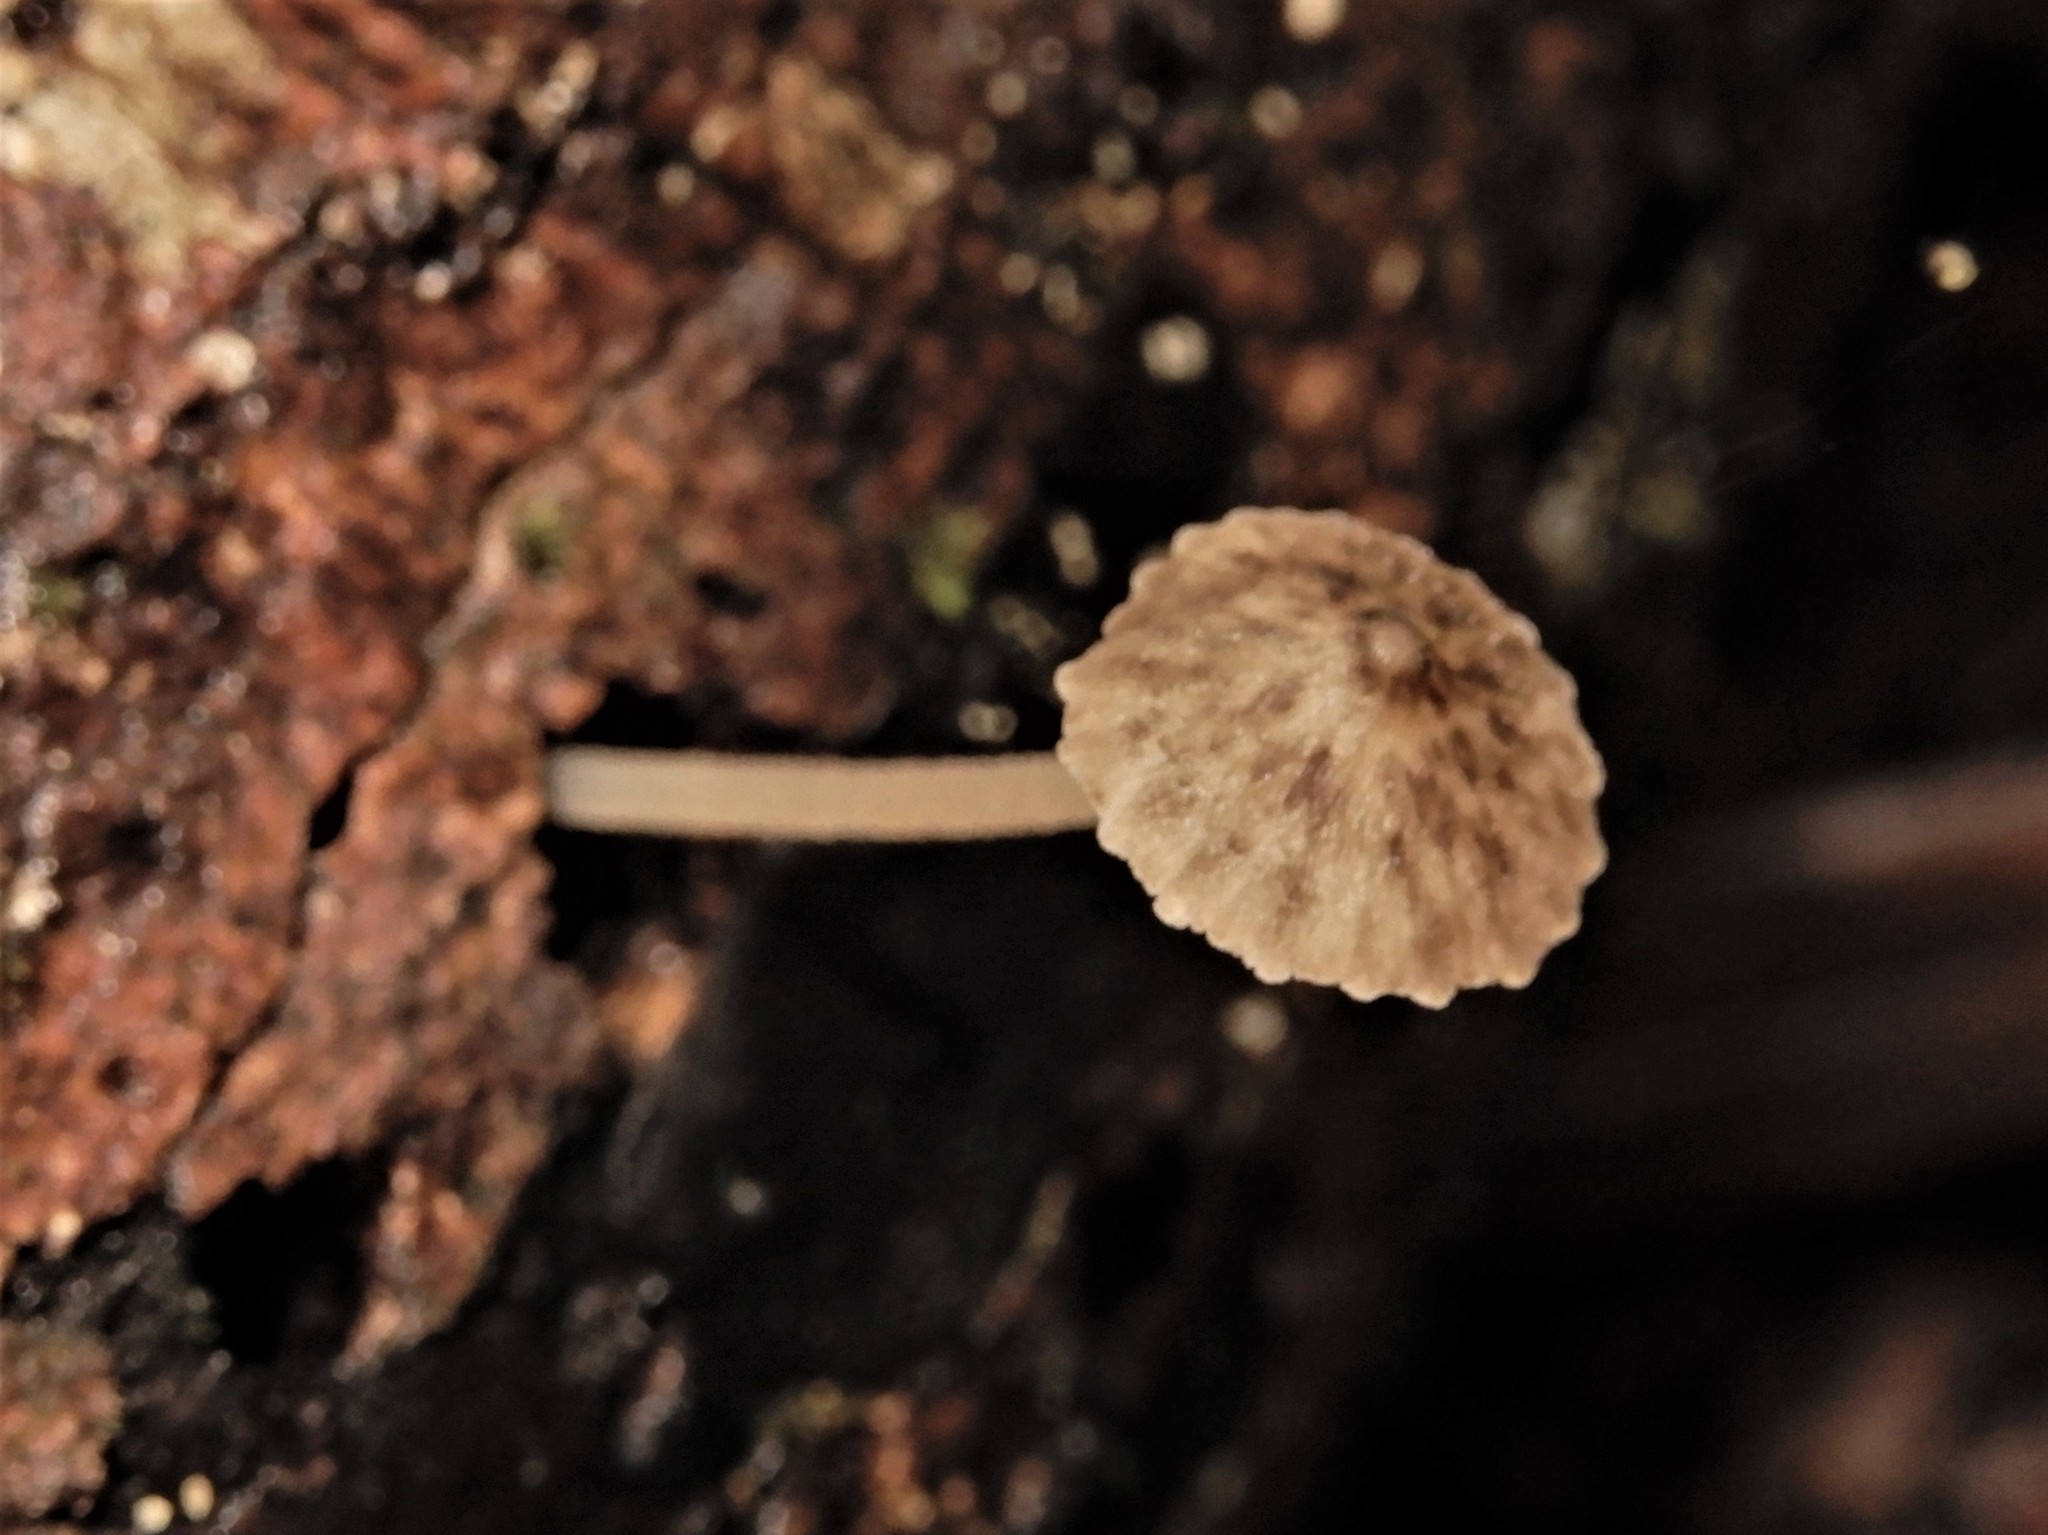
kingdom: Fungi
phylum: Basidiomycota
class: Agaricomycetes
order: Agaricales
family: Porotheleaceae
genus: Pseudohydropus
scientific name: Pseudohydropus parafunebris
